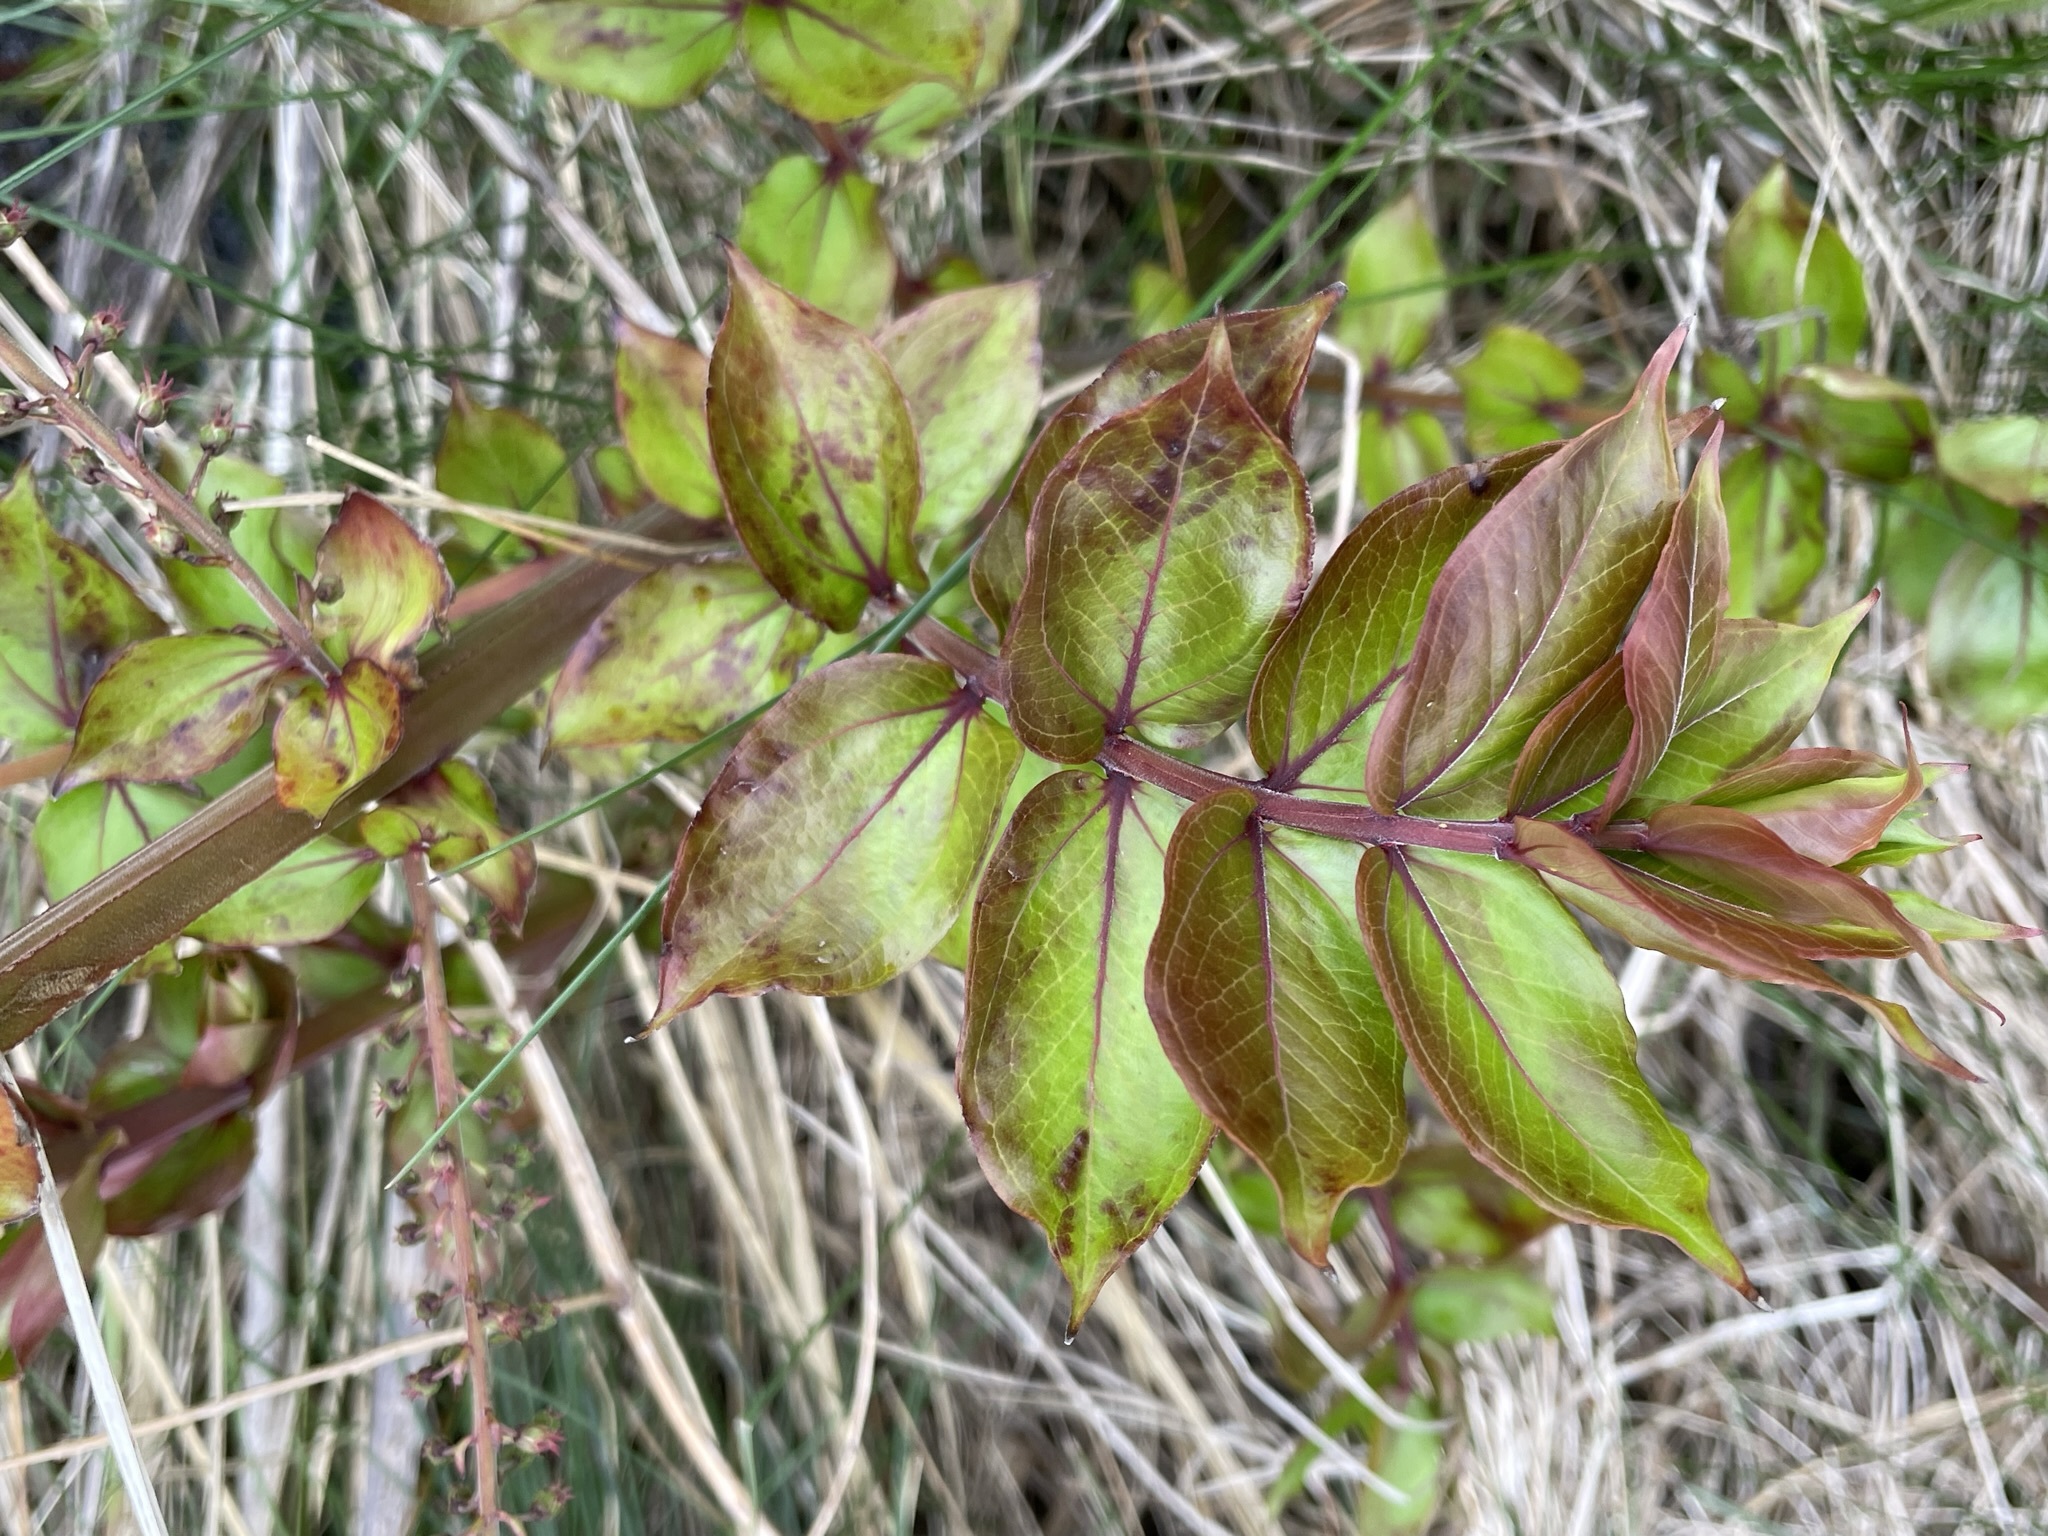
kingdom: Plantae
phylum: Tracheophyta
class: Magnoliopsida
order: Cucurbitales
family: Coriariaceae
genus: Coriaria
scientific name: Coriaria sarmentosa
